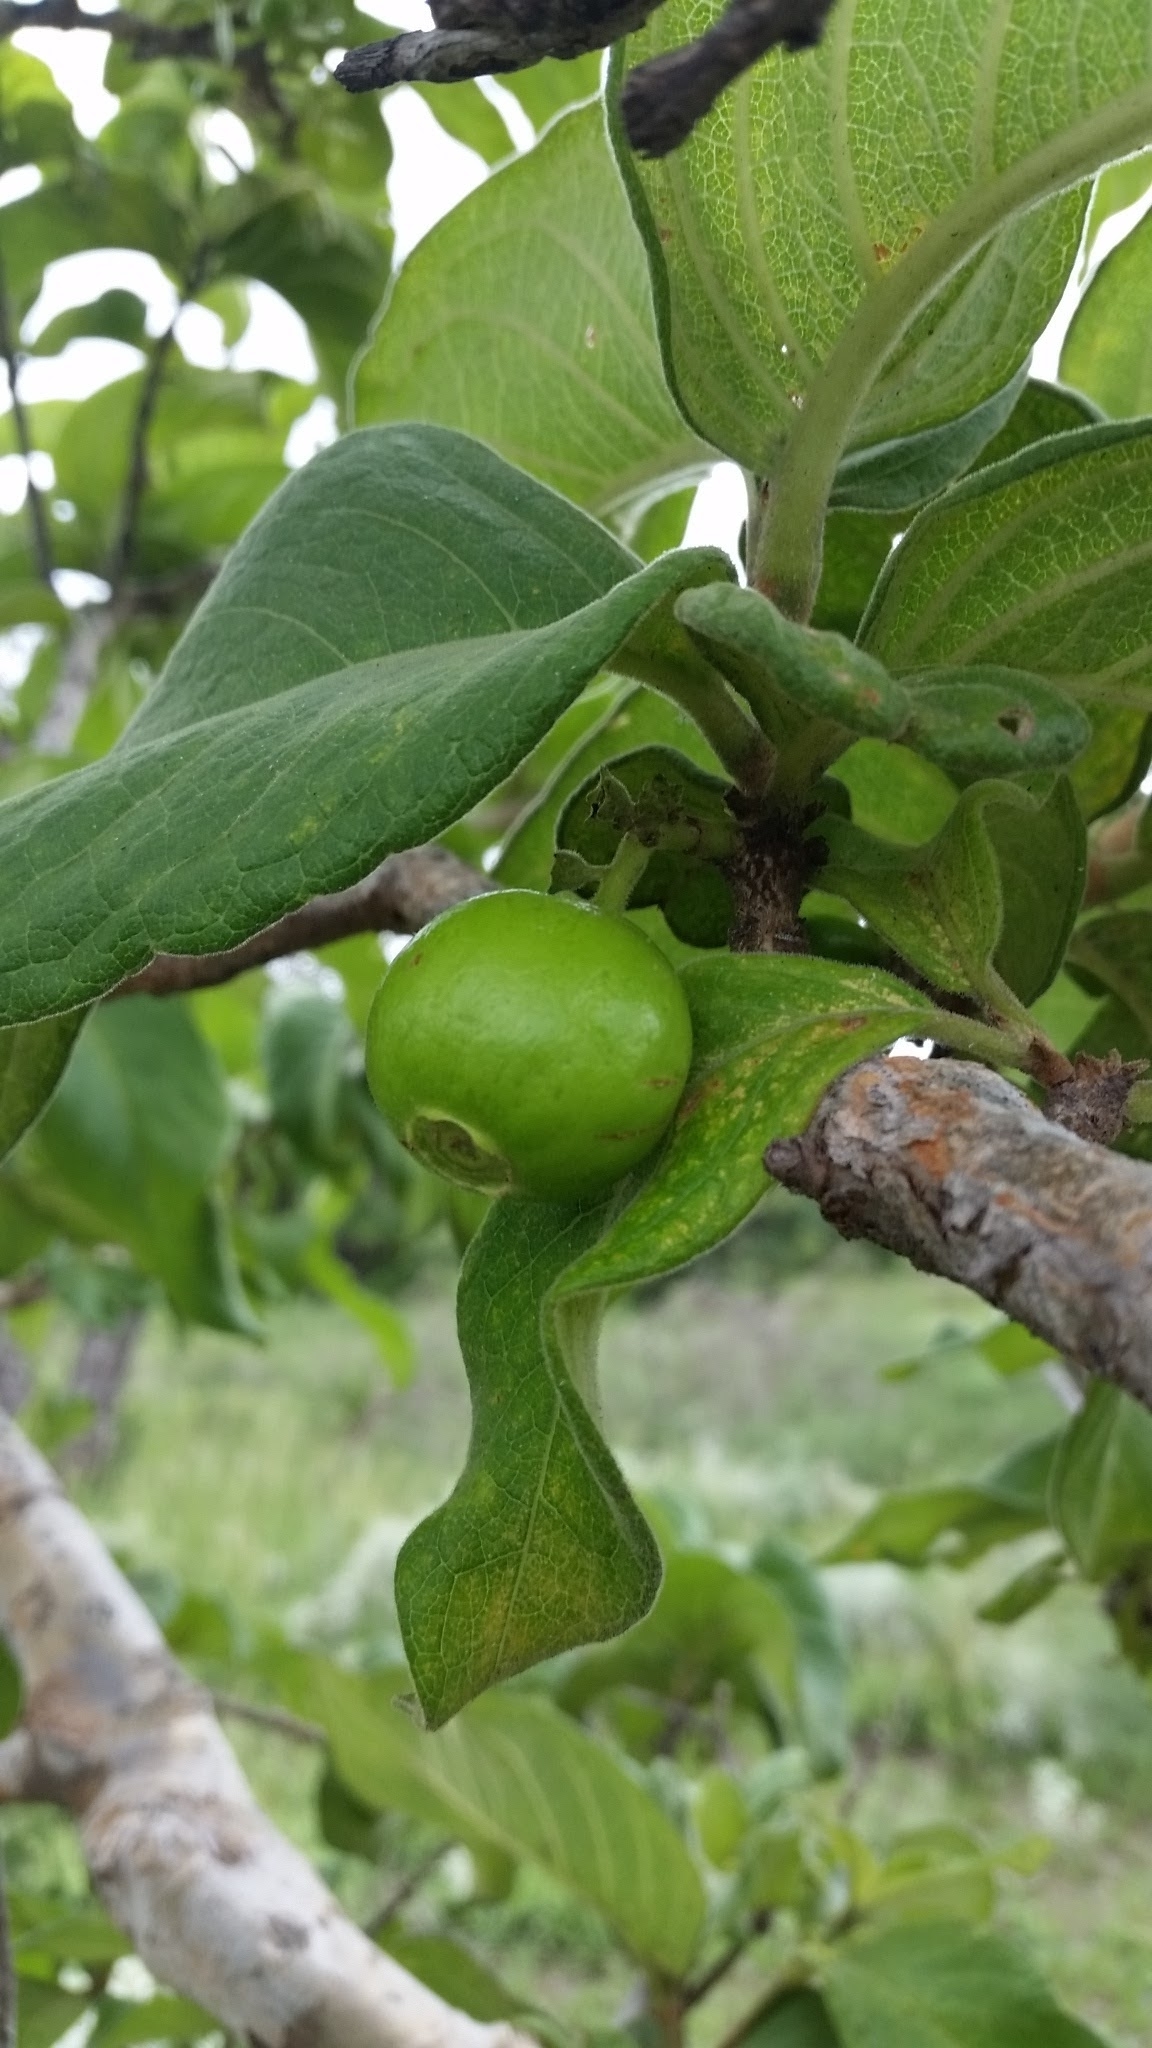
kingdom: Plantae
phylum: Tracheophyta
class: Magnoliopsida
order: Gentianales
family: Rubiaceae
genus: Vangueria
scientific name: Vangueria infausta
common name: Medlar
